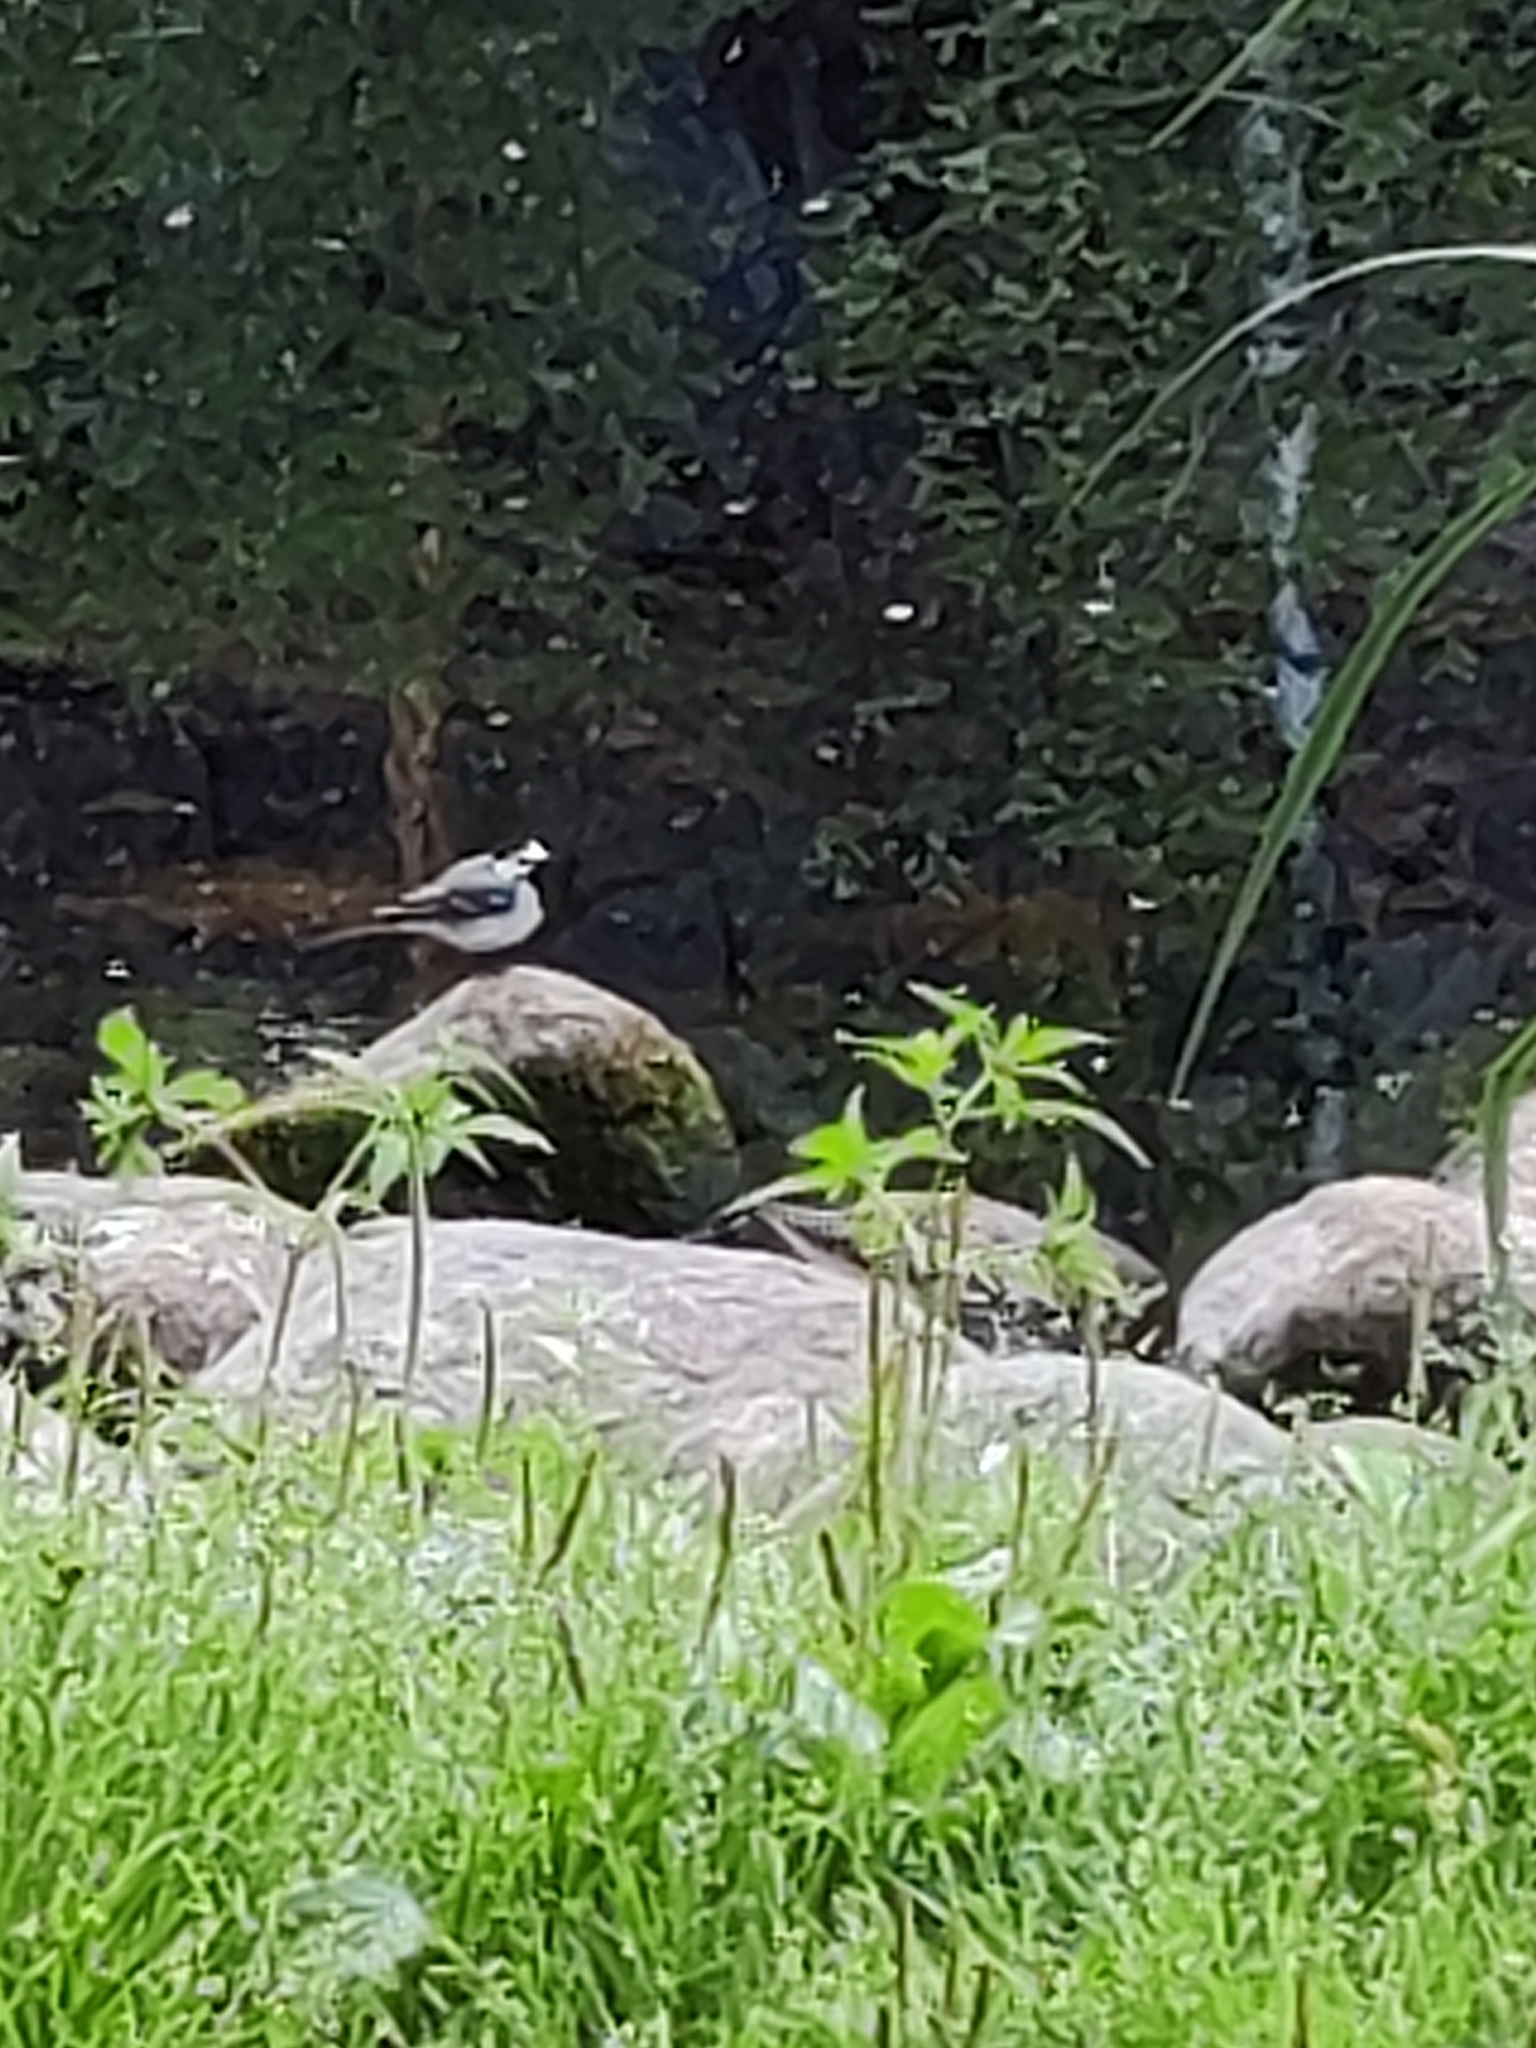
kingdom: Animalia
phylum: Chordata
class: Aves
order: Passeriformes
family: Motacillidae
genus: Motacilla
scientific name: Motacilla alba
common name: White wagtail
